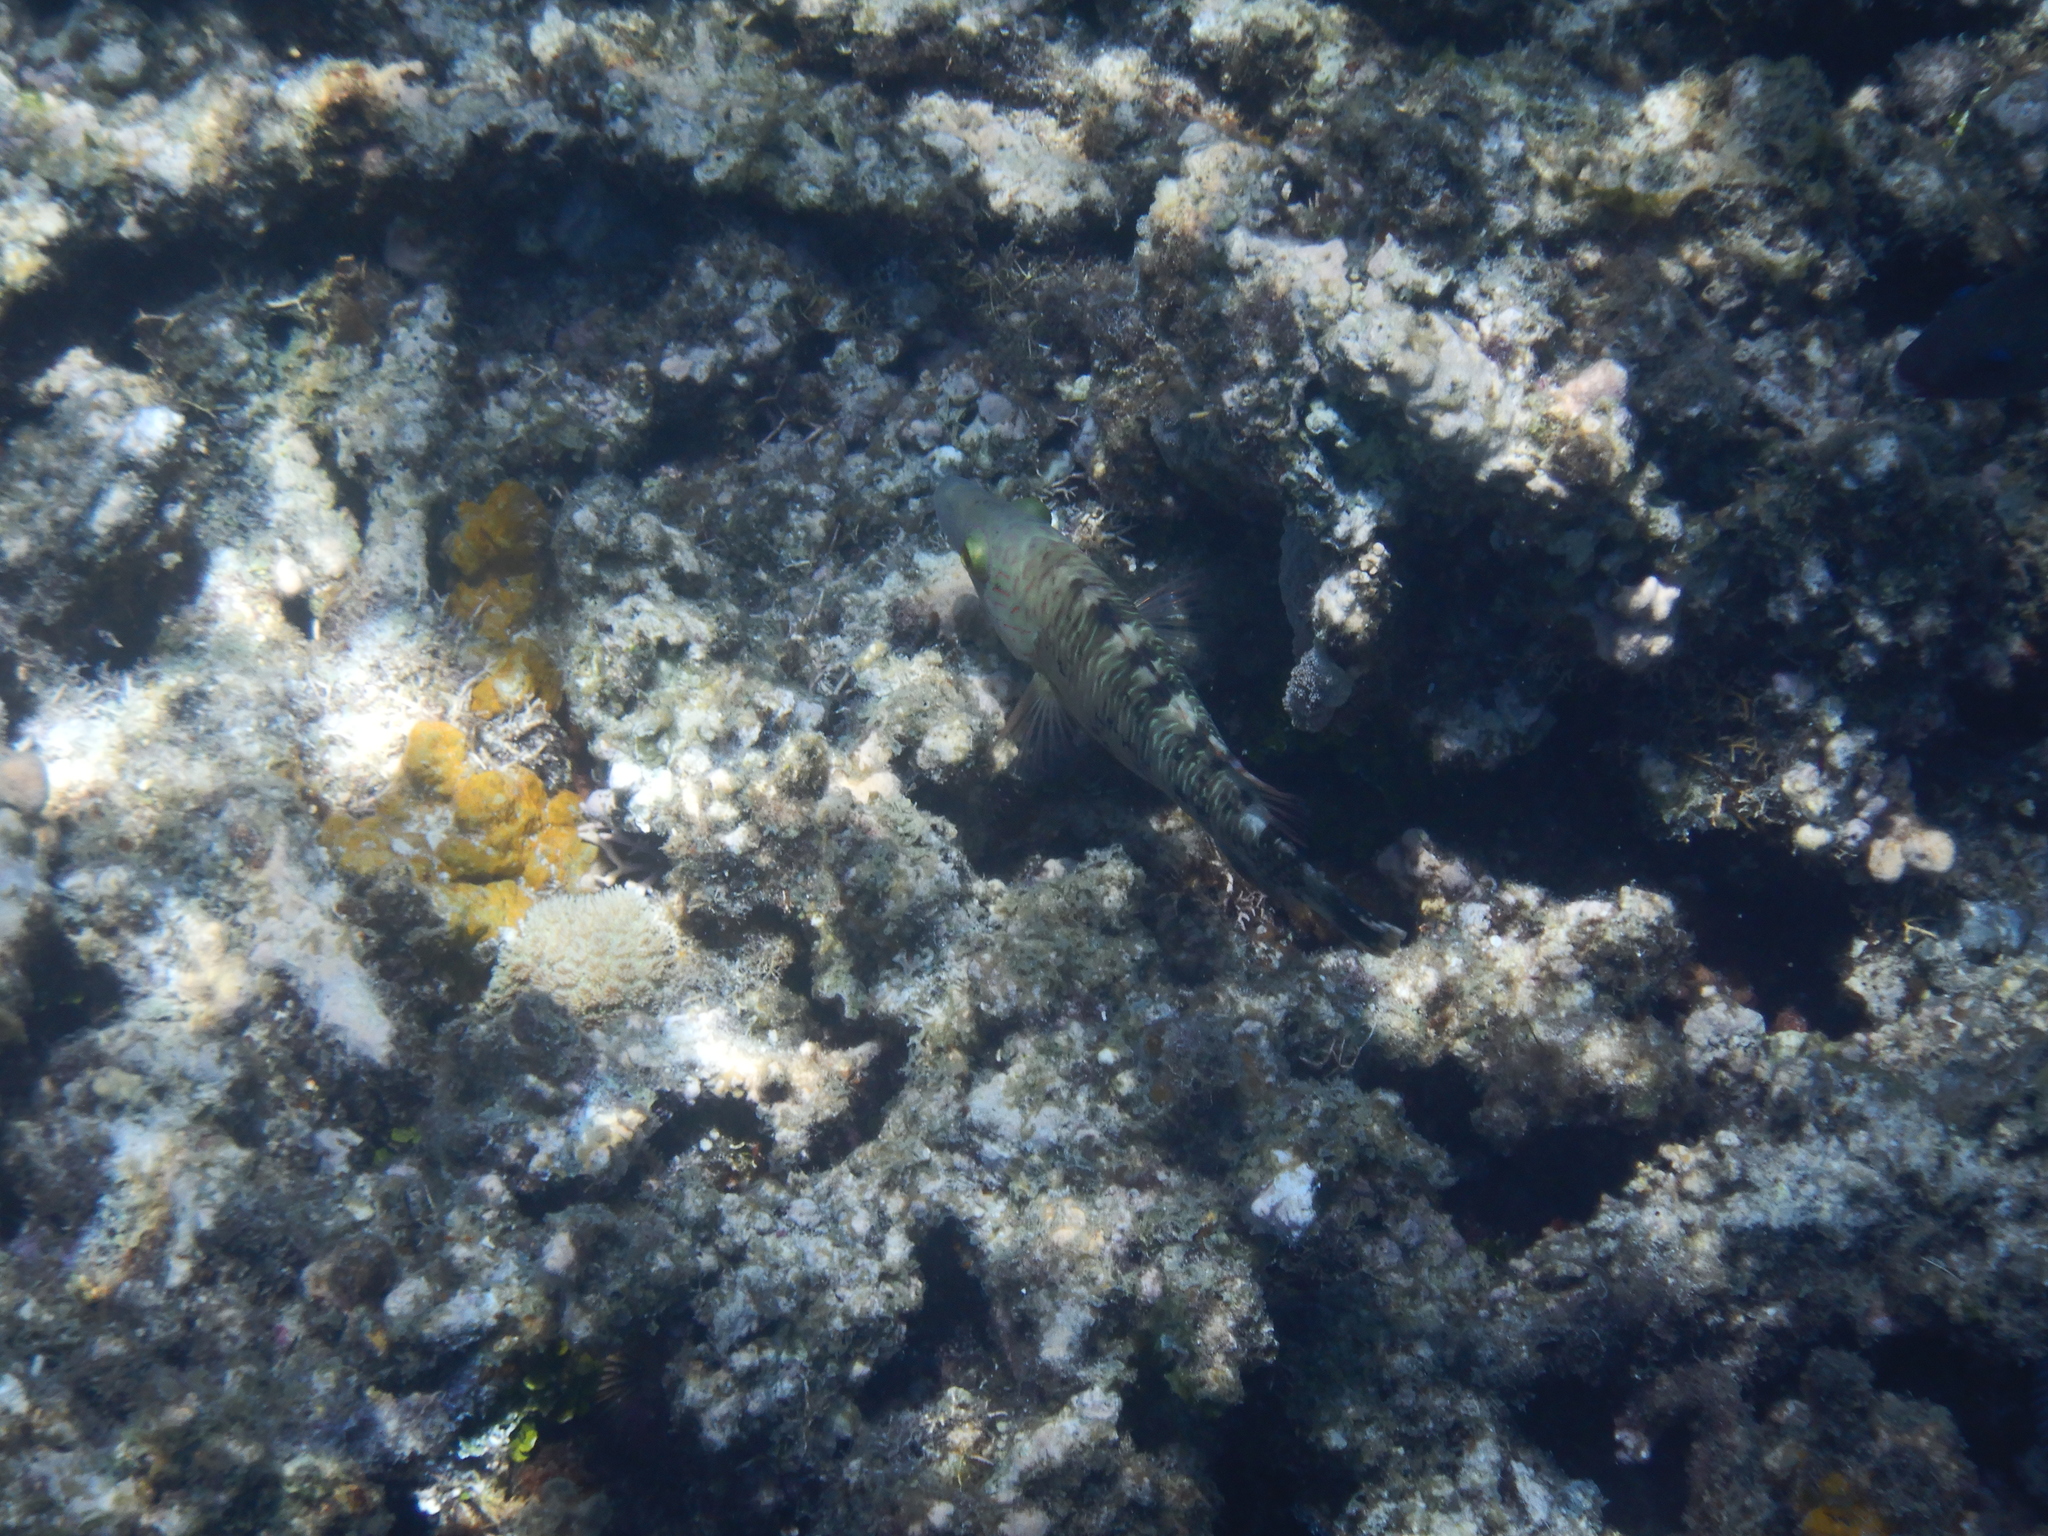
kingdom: Animalia
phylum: Chordata
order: Perciformes
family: Labridae
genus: Cheilinus
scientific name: Cheilinus trilobatus
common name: Tripletail maori wrasse
